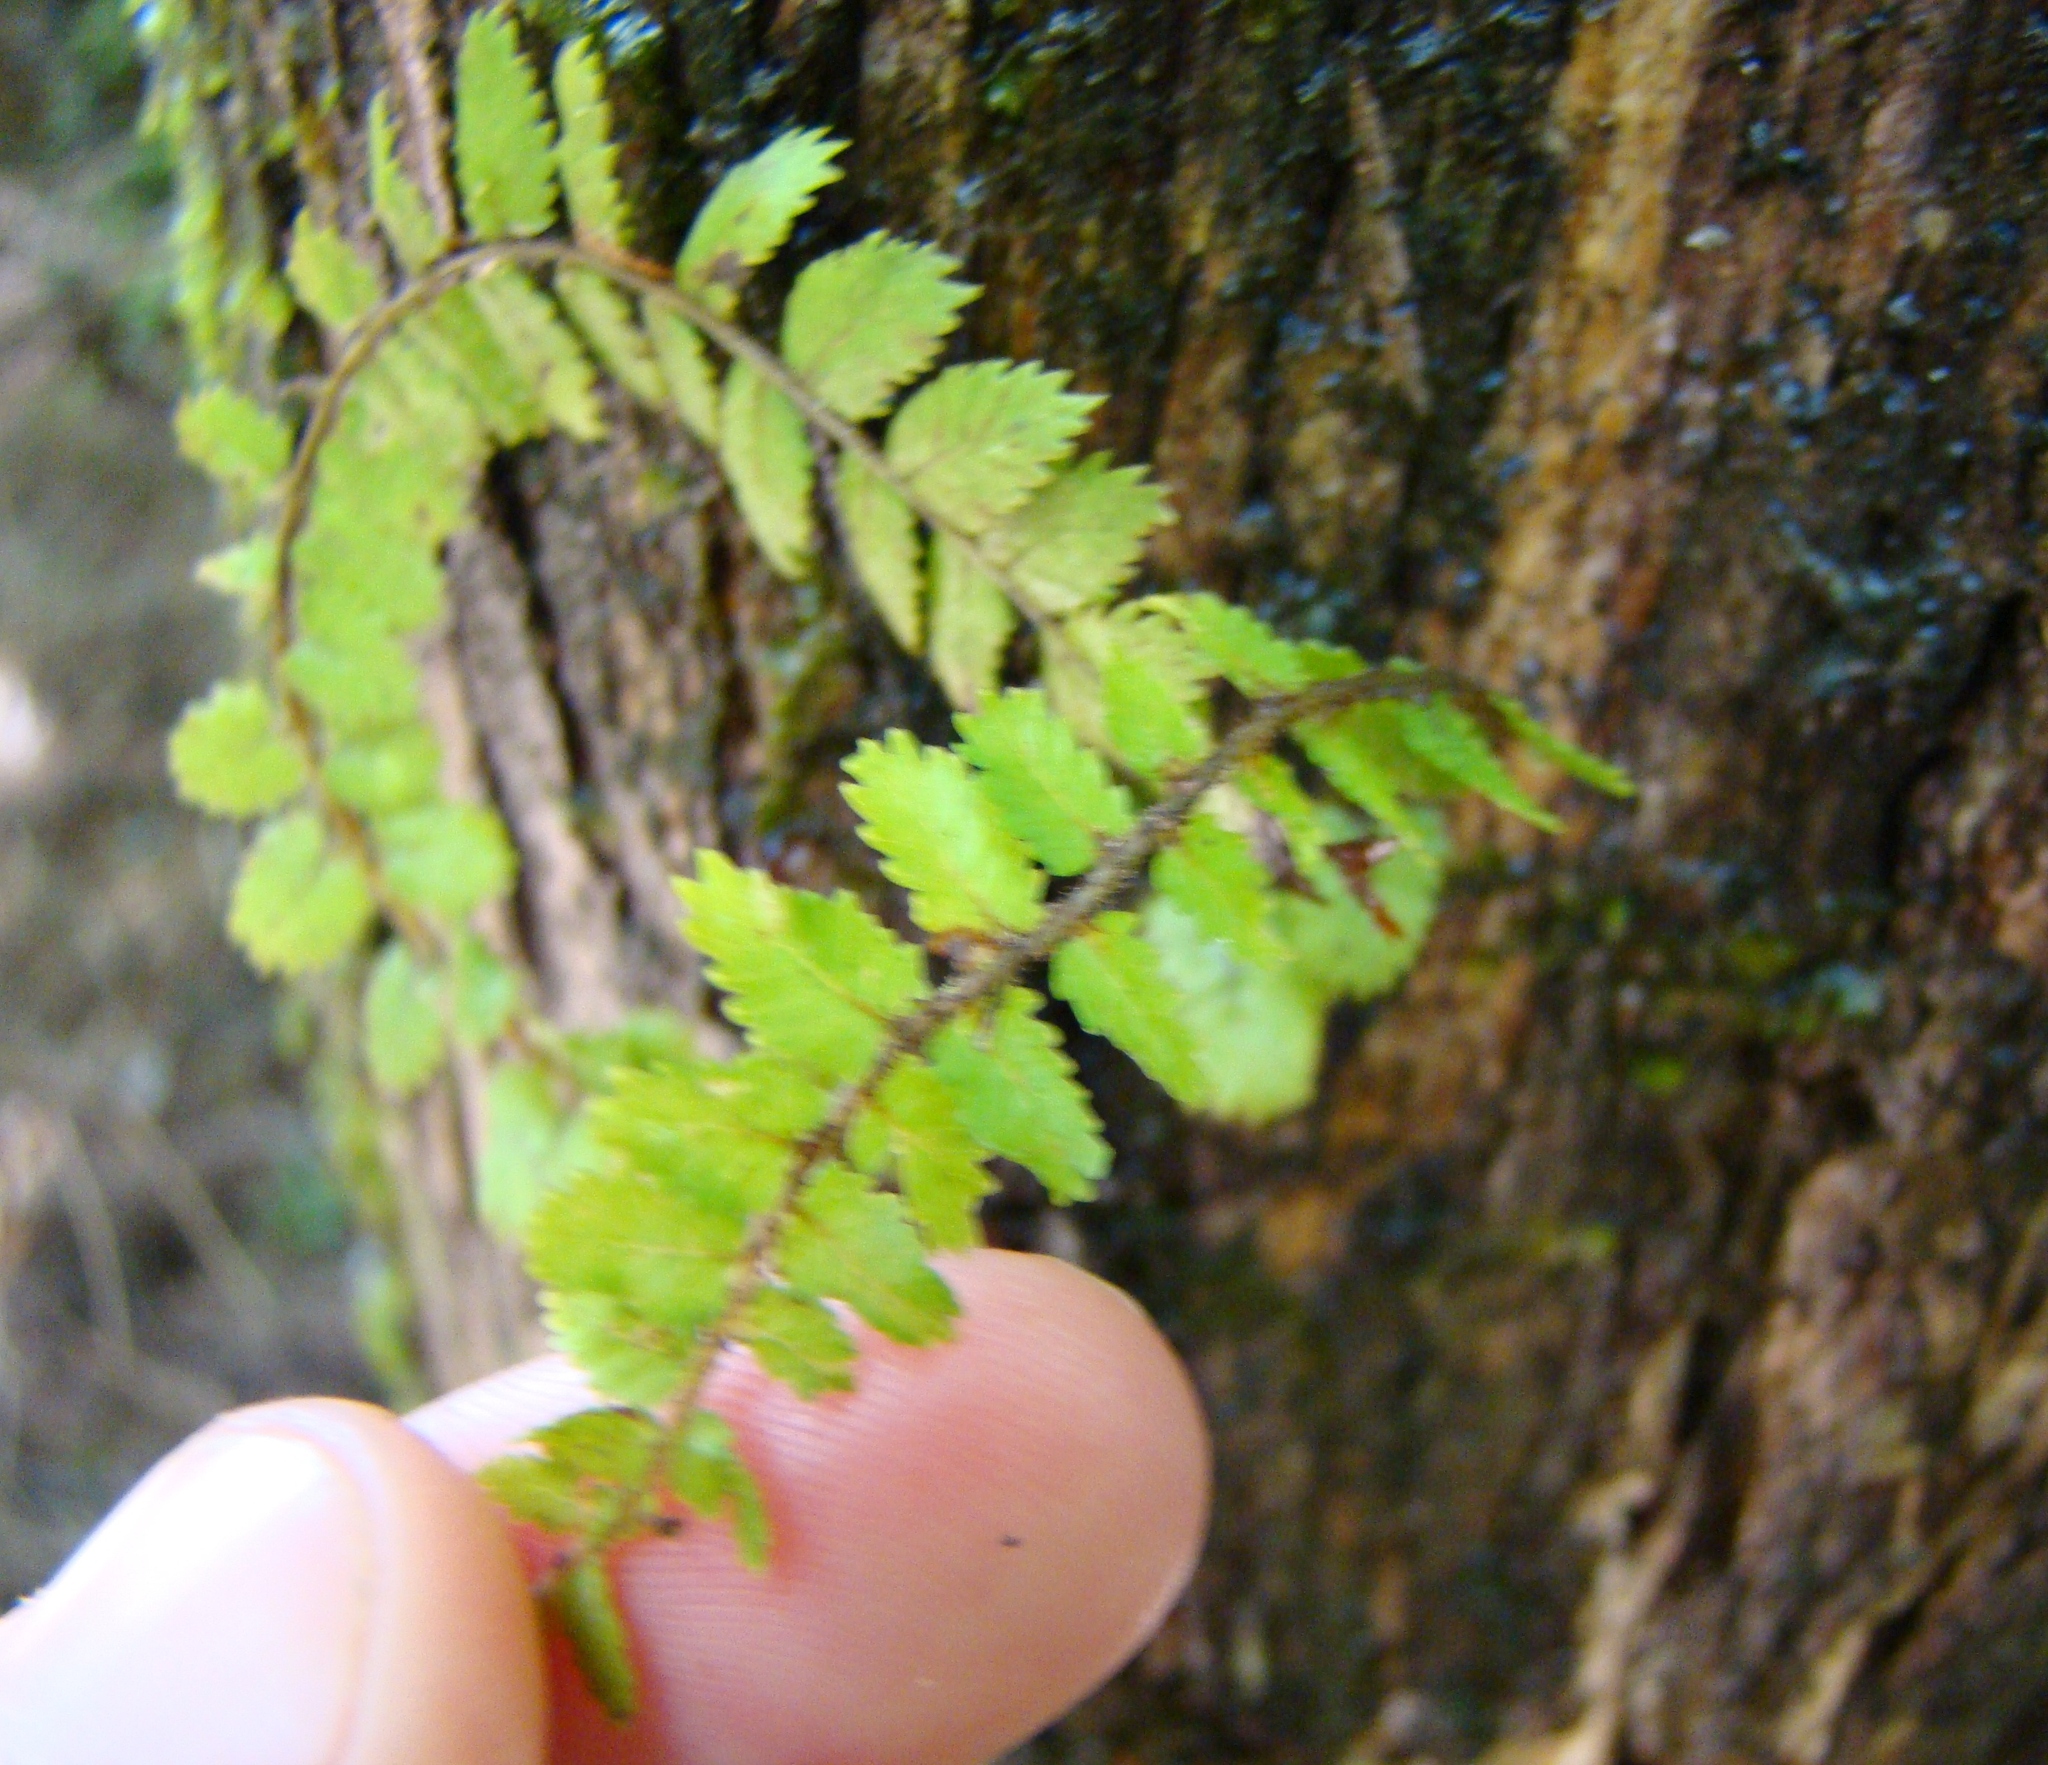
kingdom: Plantae
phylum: Tracheophyta
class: Polypodiopsida
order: Polypodiales
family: Blechnaceae
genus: Icarus
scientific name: Icarus filiformis
